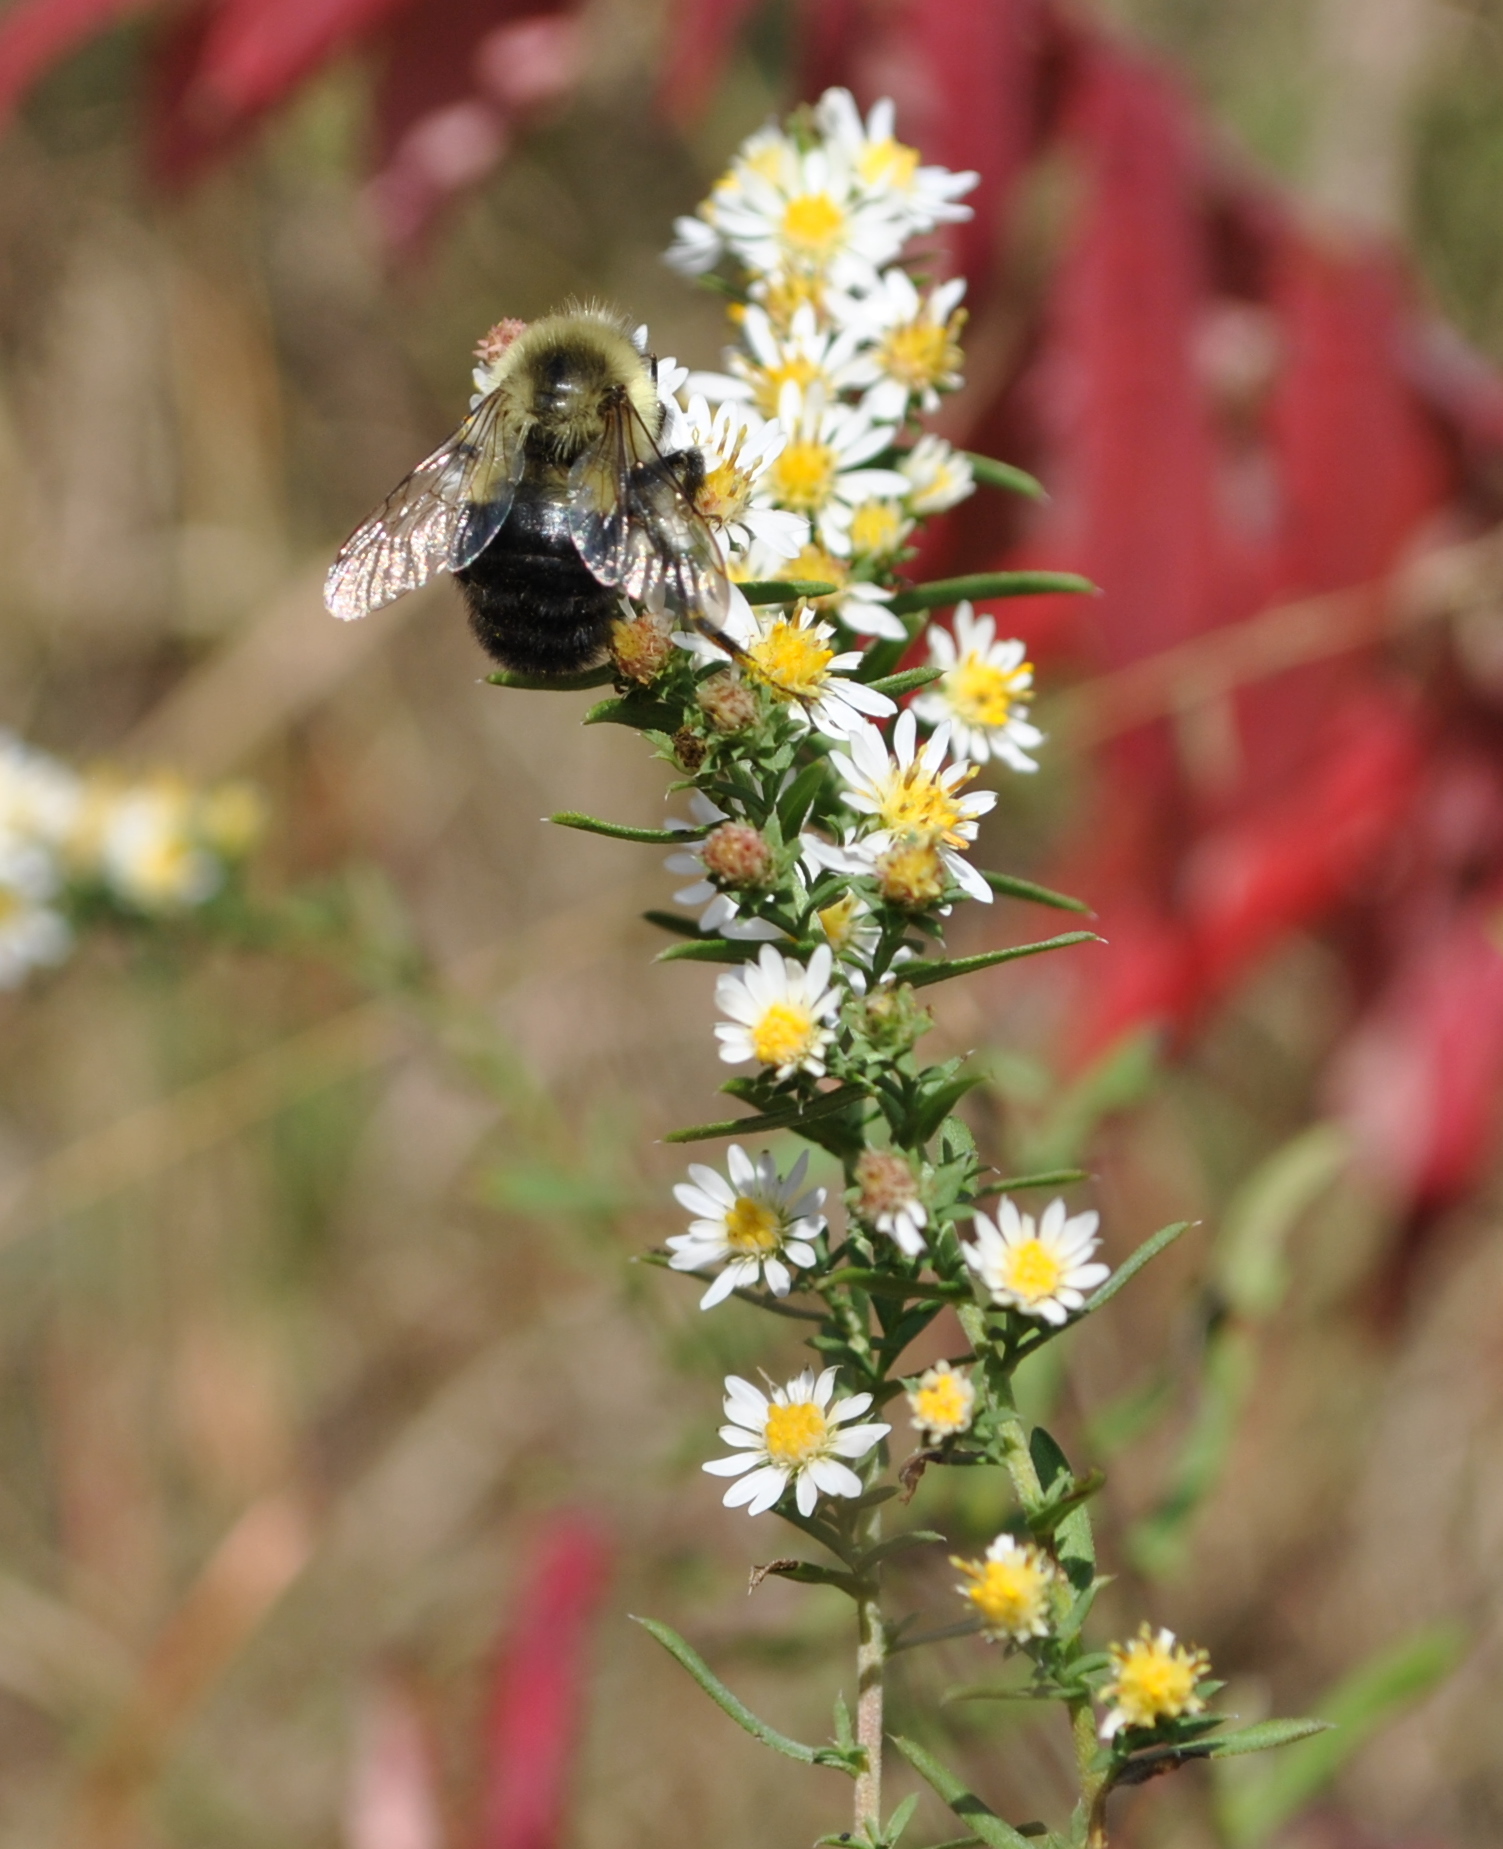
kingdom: Plantae
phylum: Tracheophyta
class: Magnoliopsida
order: Asterales
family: Asteraceae
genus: Symphyotrichum
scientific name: Symphyotrichum ericoides
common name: Heath aster
